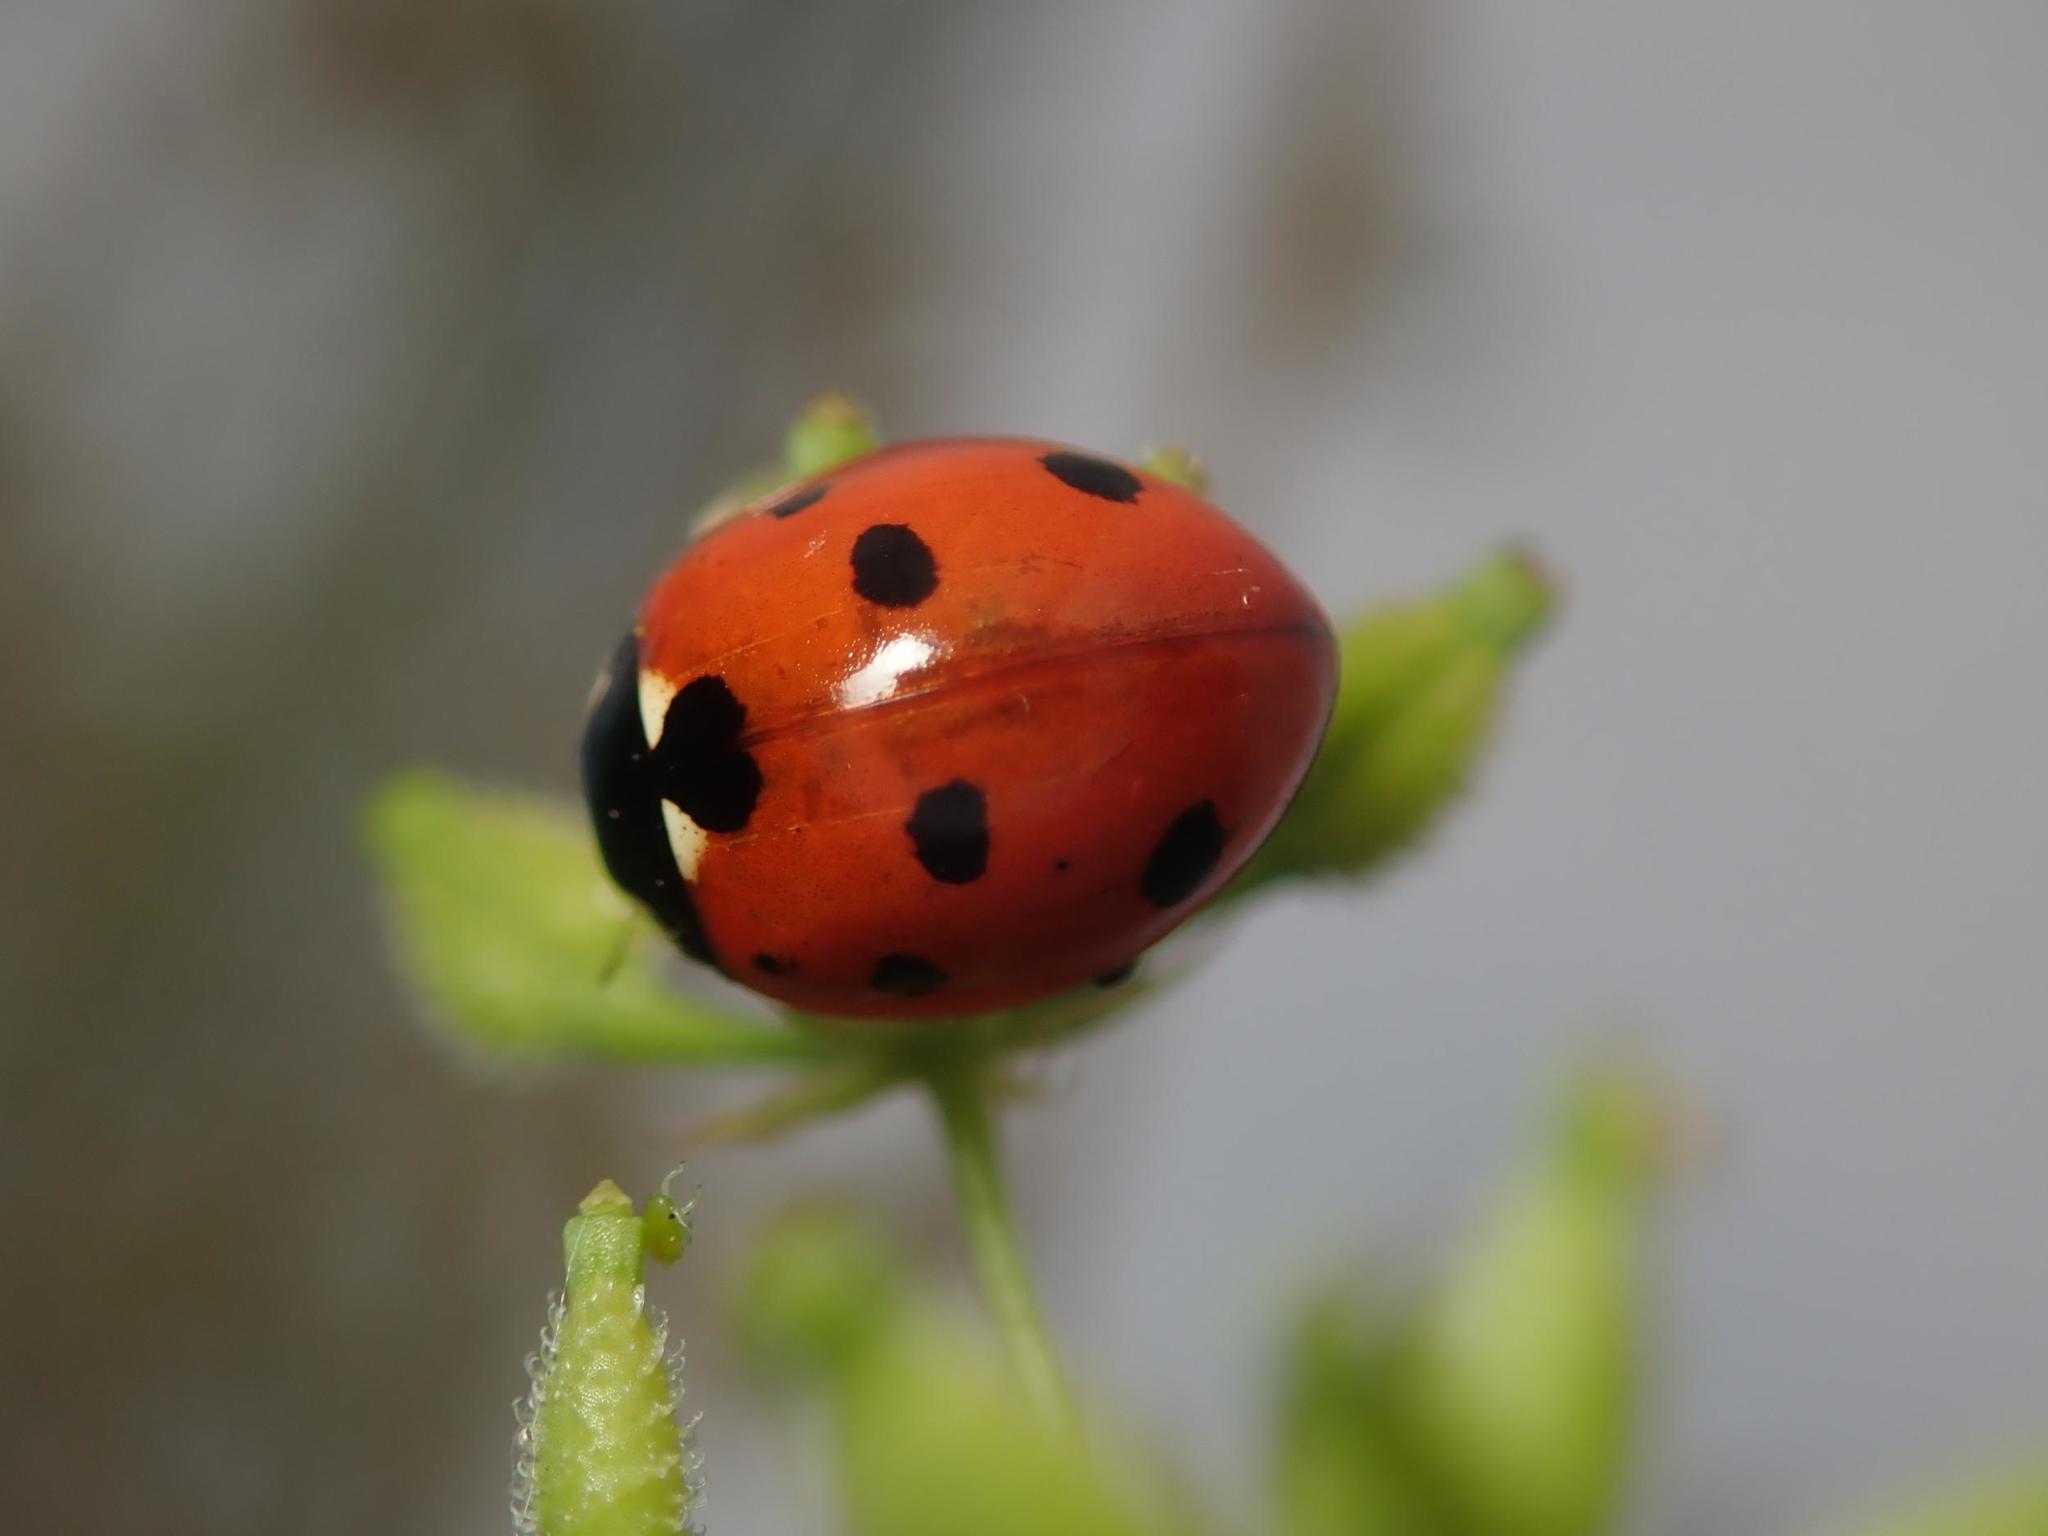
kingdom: Animalia
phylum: Arthropoda
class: Insecta
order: Coleoptera
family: Coccinellidae
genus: Coccinella
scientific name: Coccinella septempunctata
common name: Sevenspotted lady beetle
